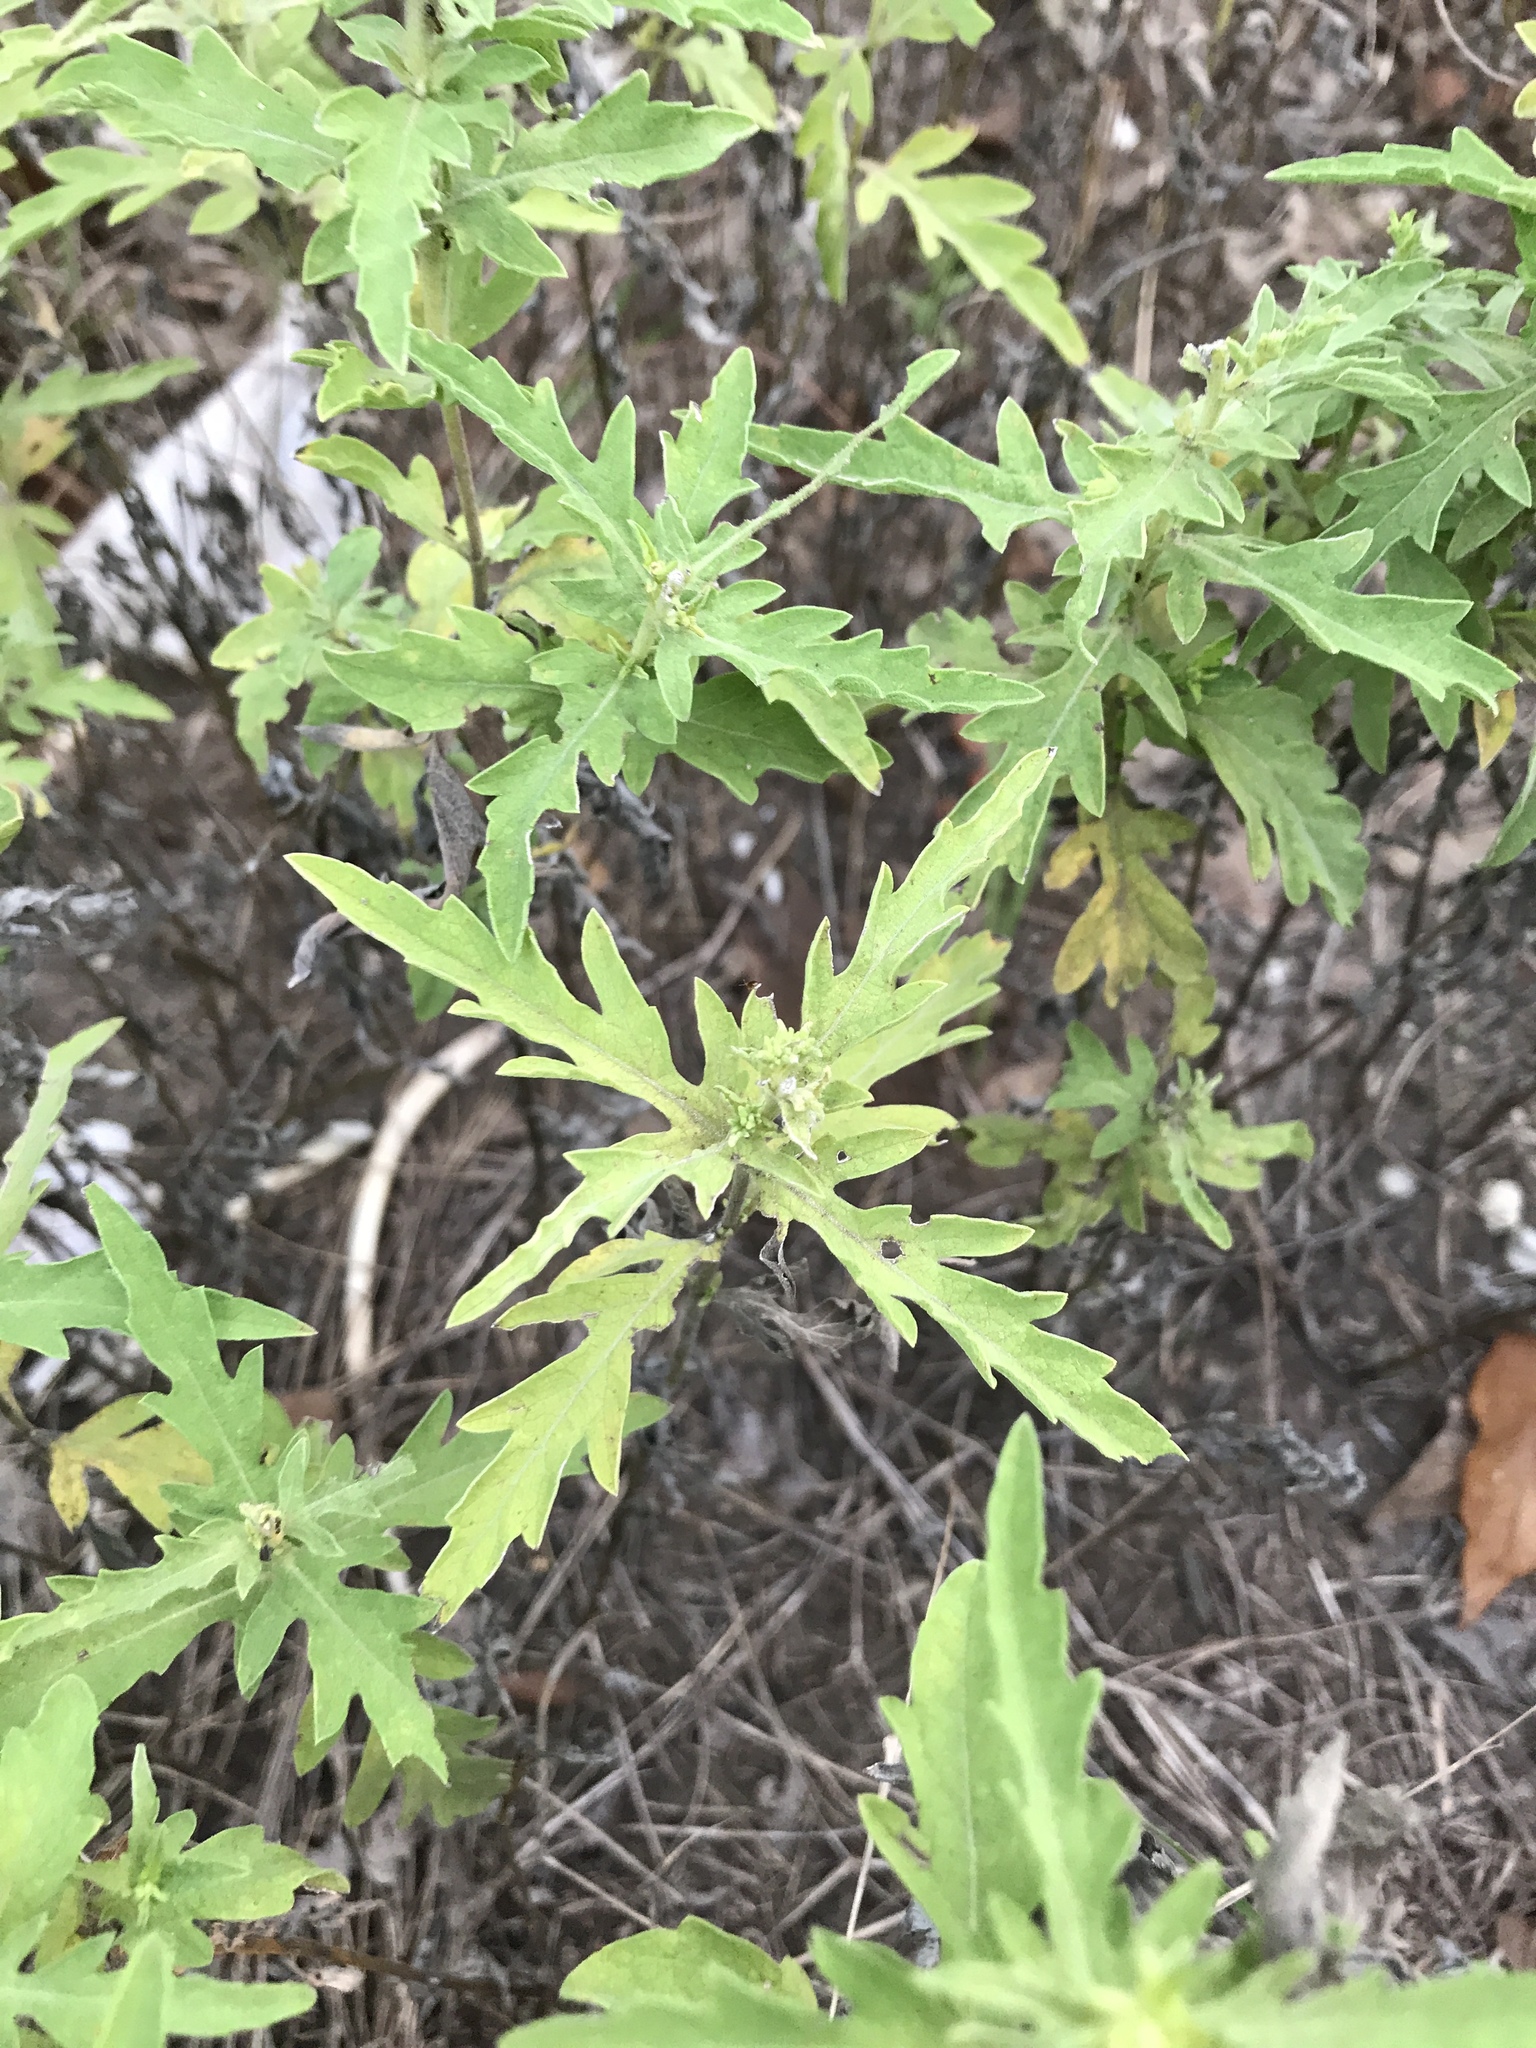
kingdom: Plantae
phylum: Tracheophyta
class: Magnoliopsida
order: Asterales
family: Asteraceae
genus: Ambrosia
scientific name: Ambrosia psilostachya
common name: Perennial ragweed
